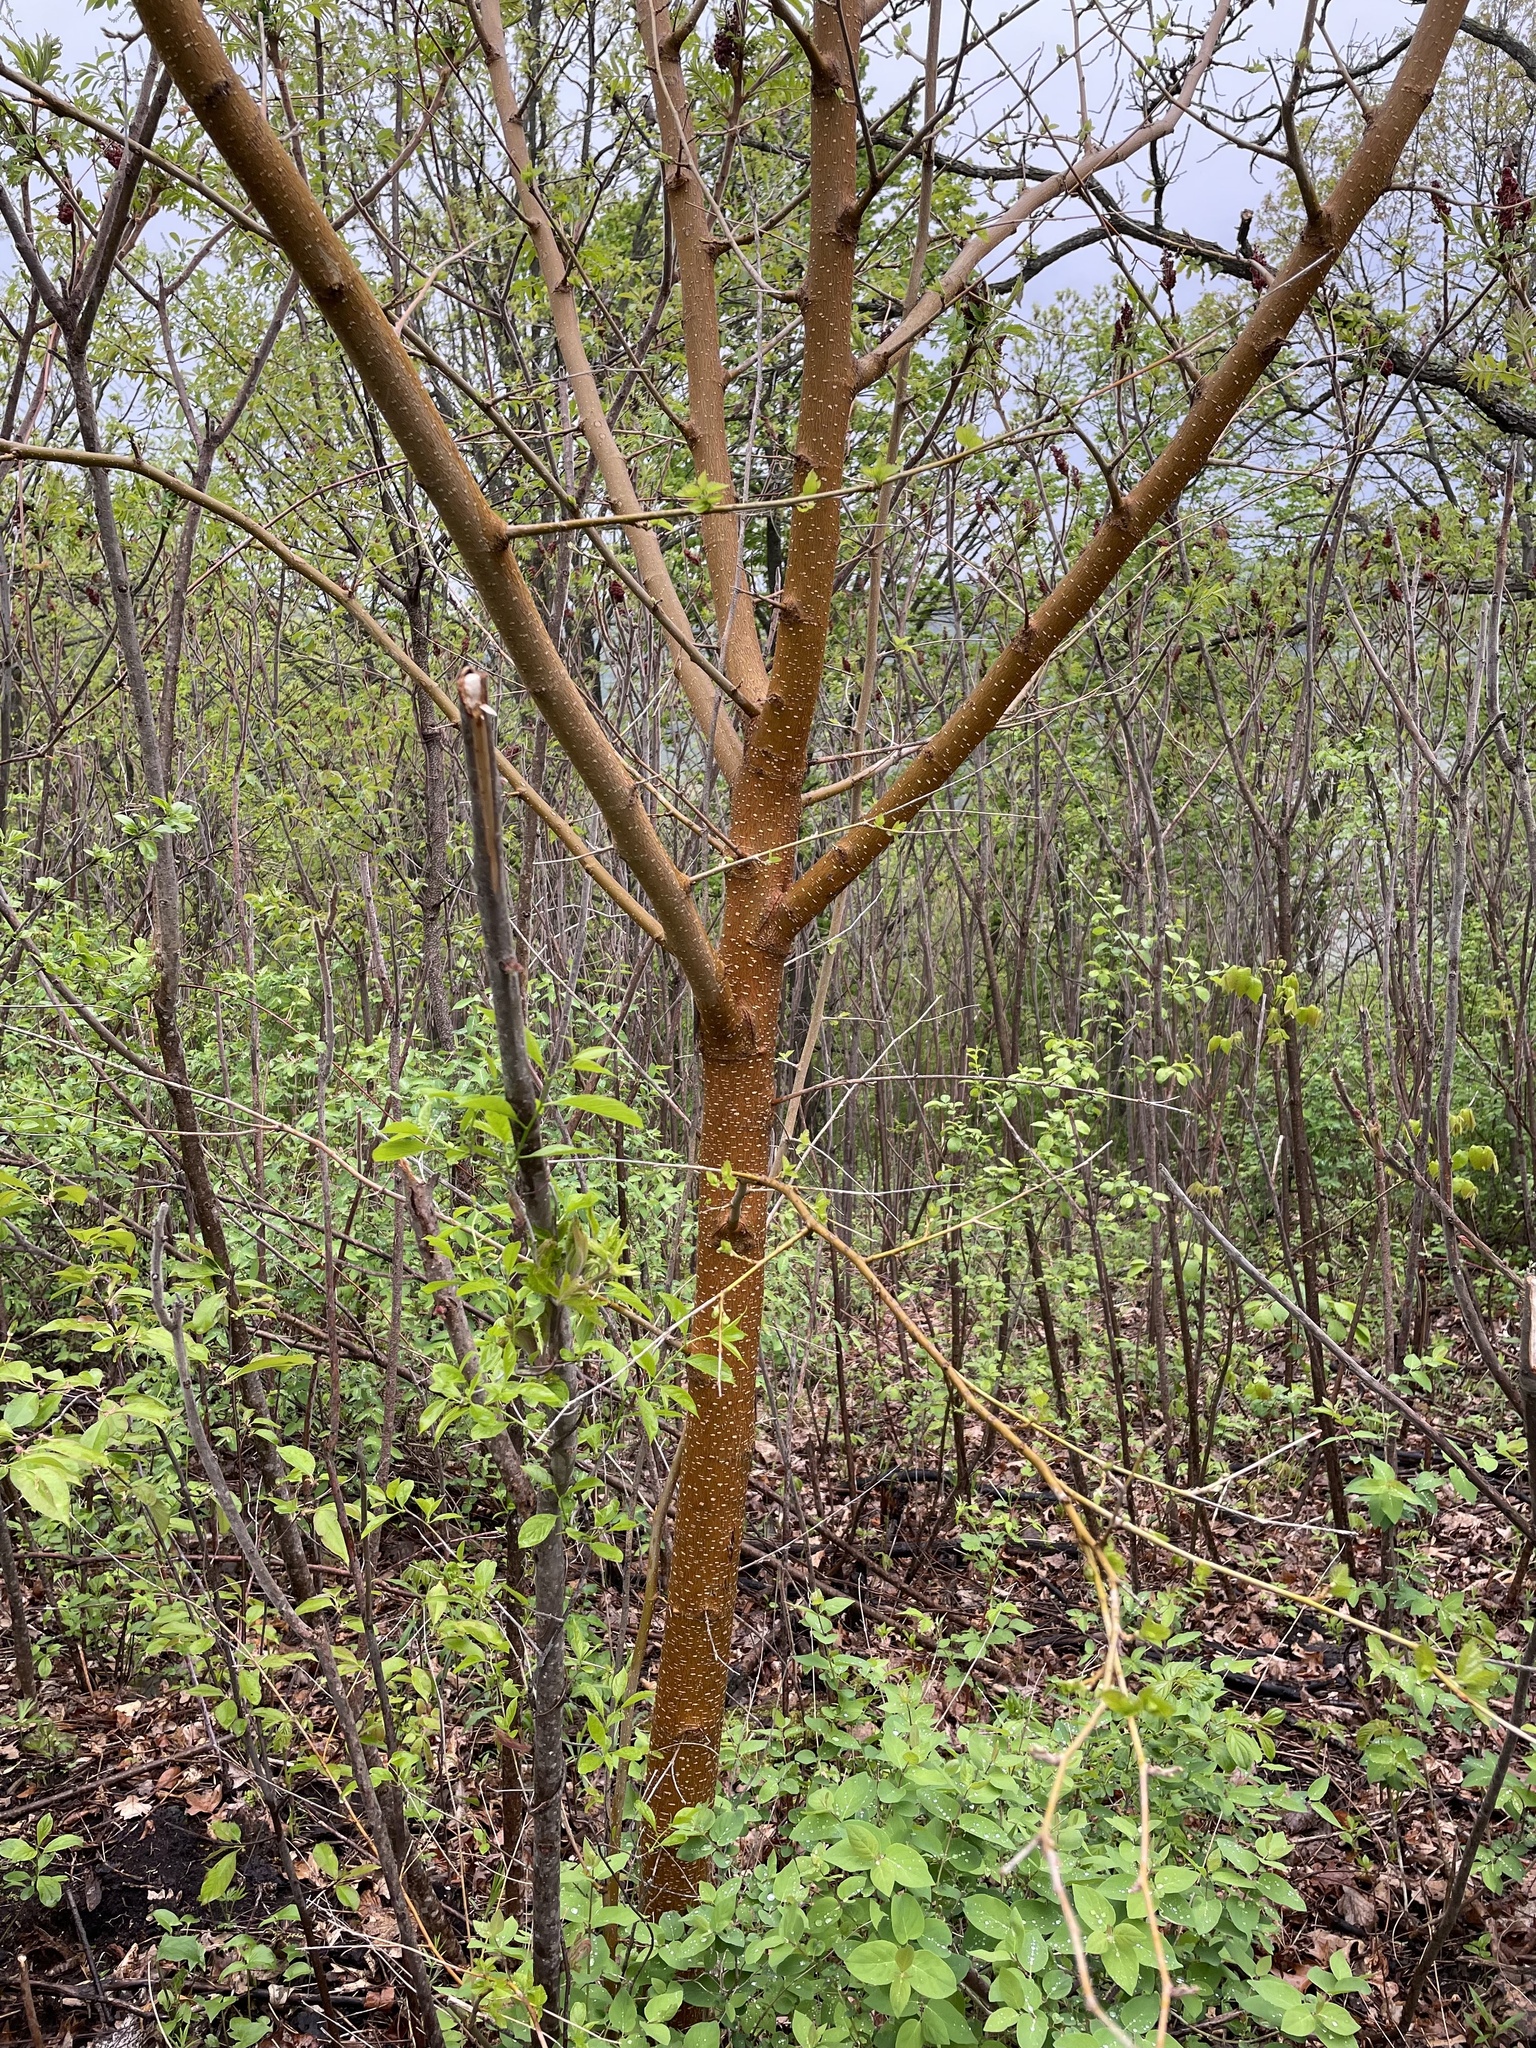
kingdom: Plantae
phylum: Tracheophyta
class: Magnoliopsida
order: Rosales
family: Moraceae
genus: Morus
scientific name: Morus alba
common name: White mulberry
